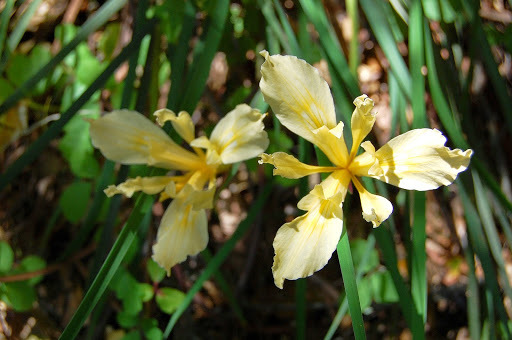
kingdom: Plantae
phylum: Tracheophyta
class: Liliopsida
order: Asparagales
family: Iridaceae
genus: Iris
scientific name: Iris fernaldii
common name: Fernald's iris
